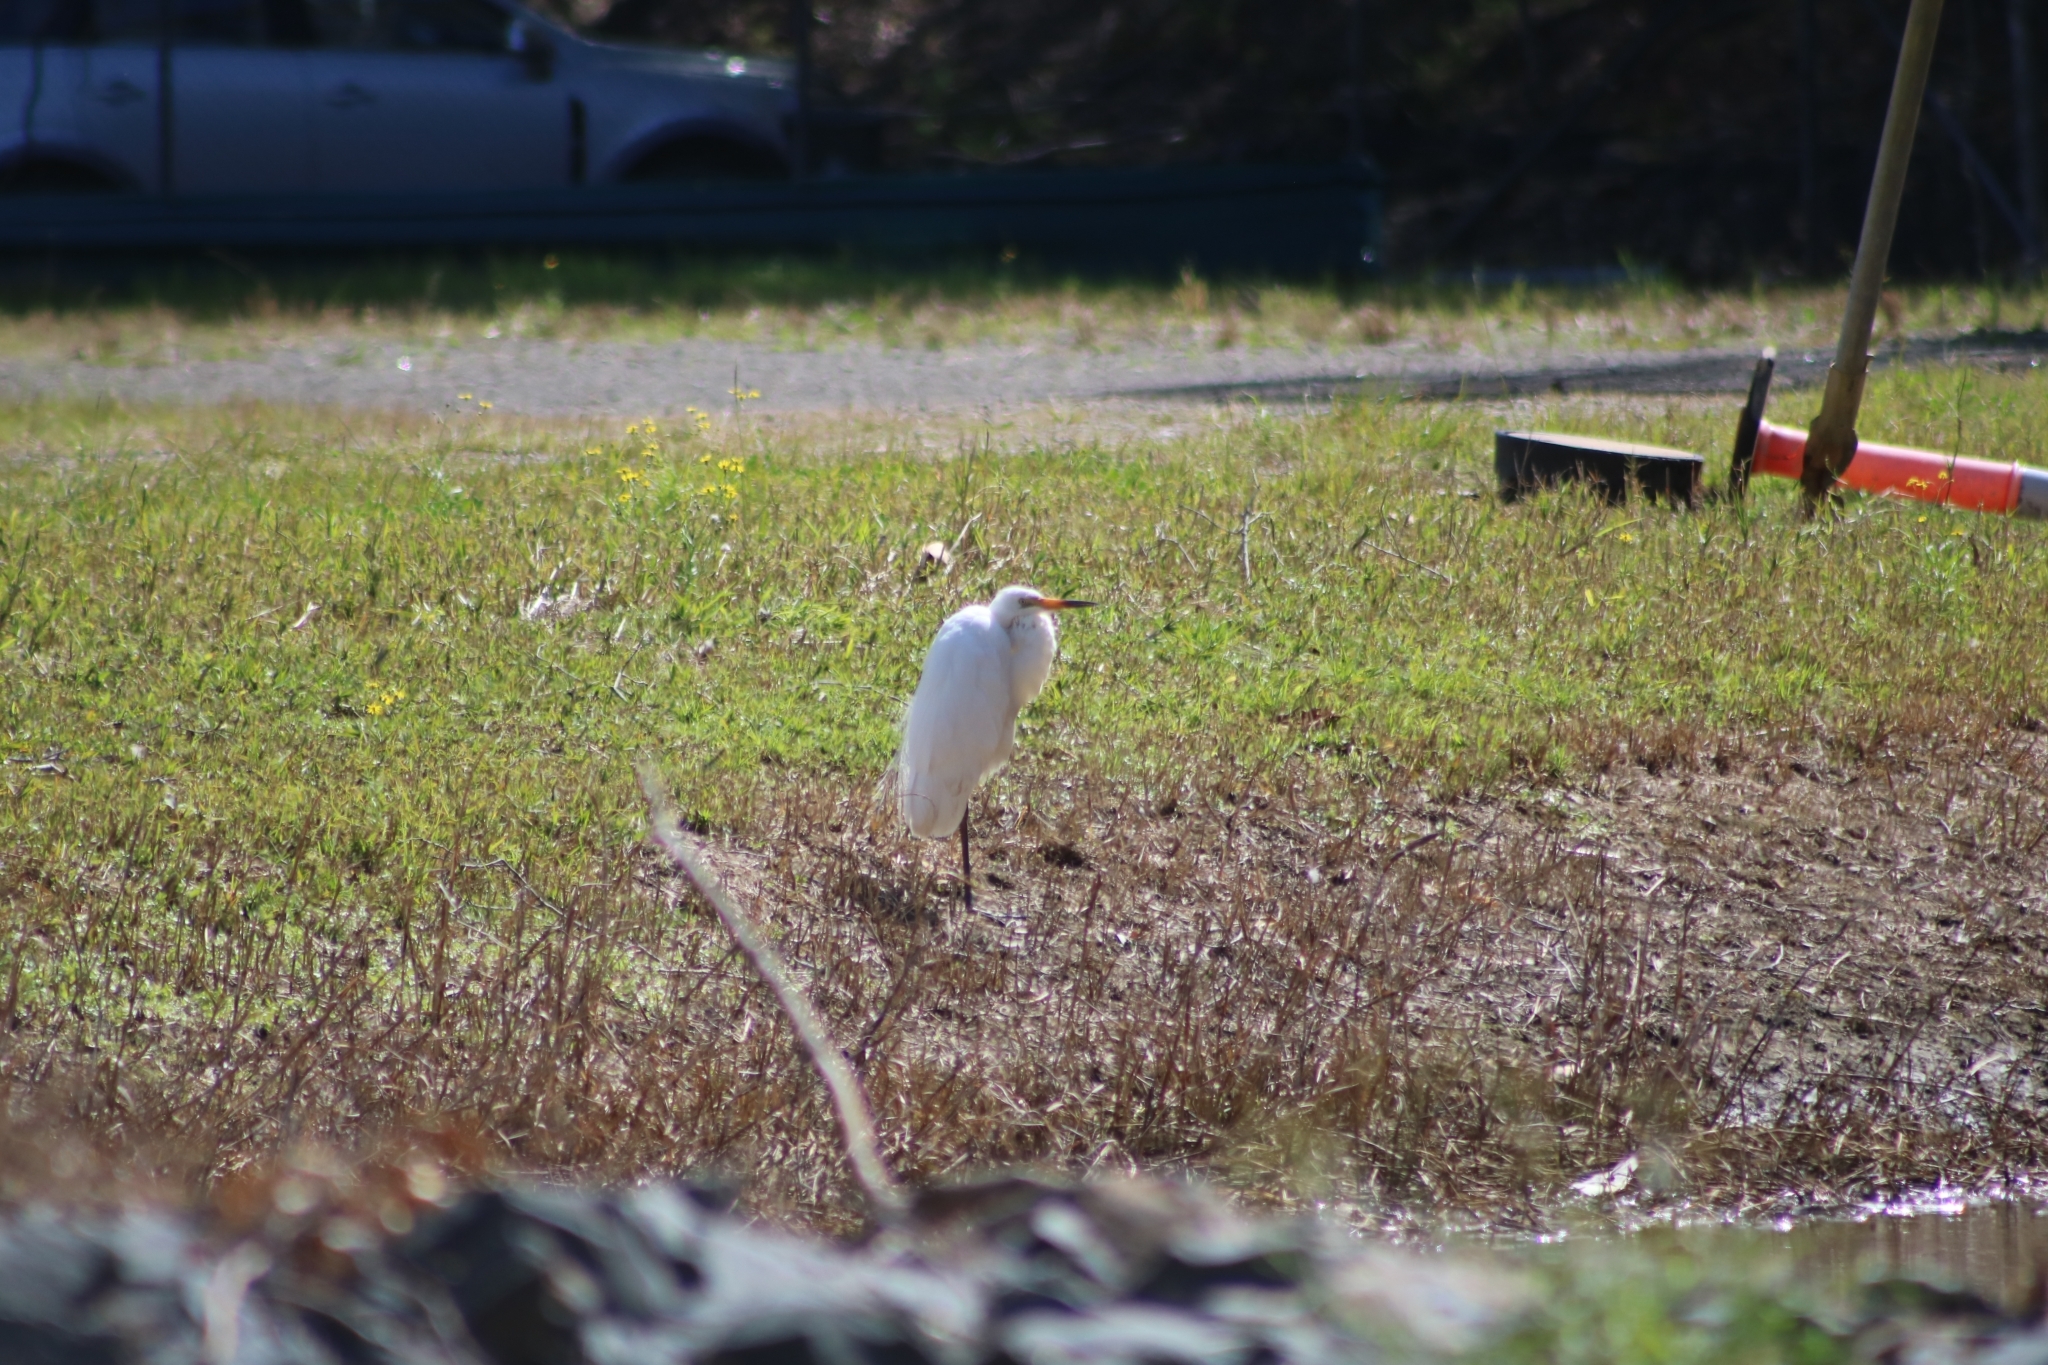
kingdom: Animalia
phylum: Chordata
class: Aves
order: Pelecaniformes
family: Ardeidae
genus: Ardea
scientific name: Ardea alba
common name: Great egret
